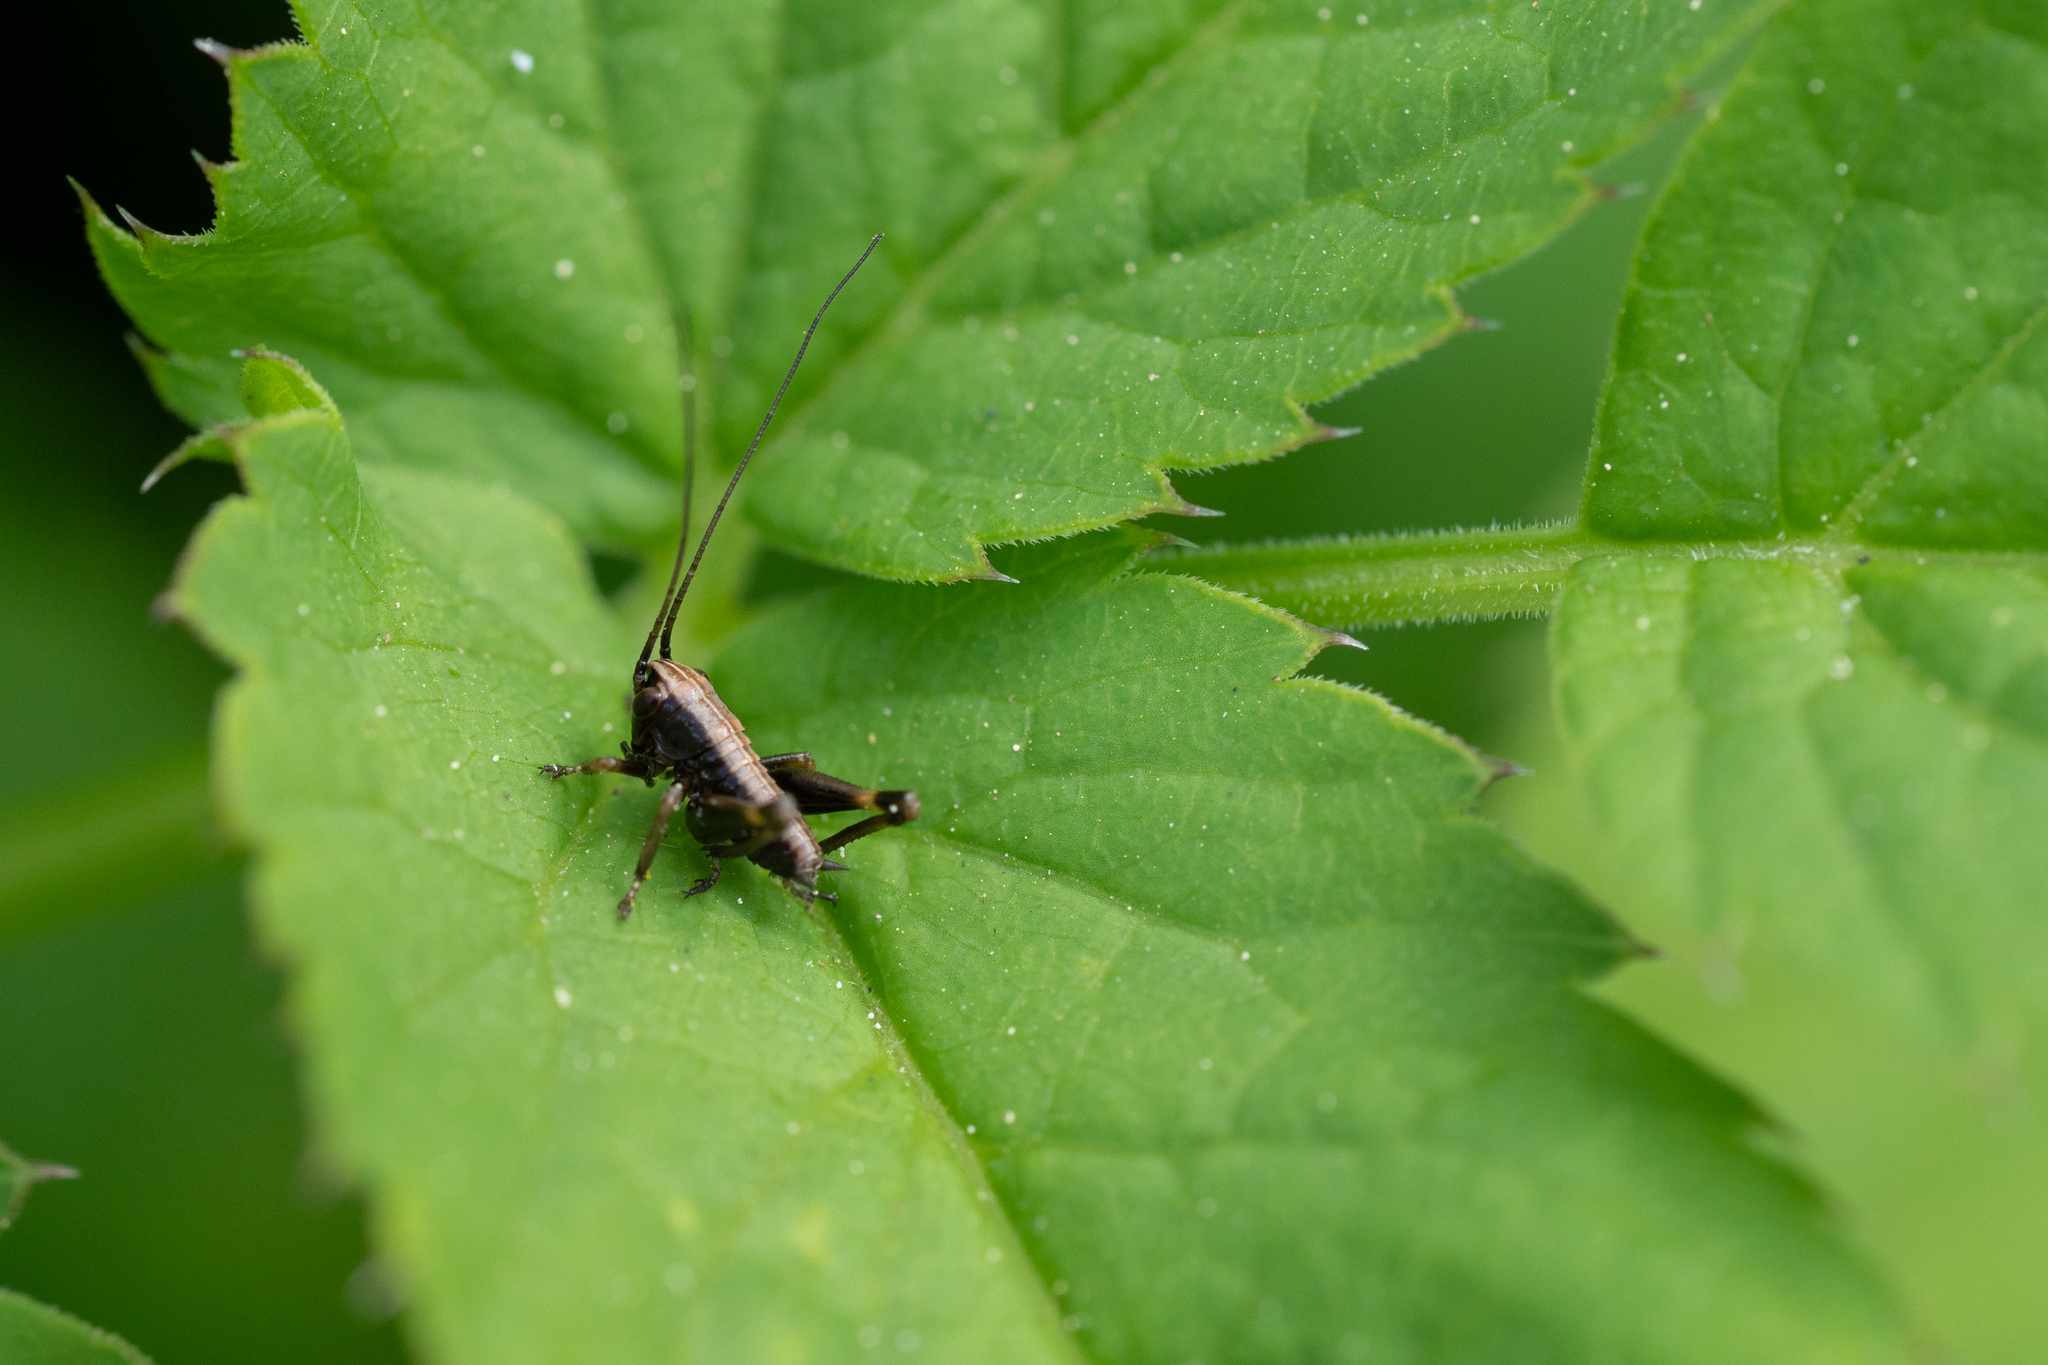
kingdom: Animalia
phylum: Arthropoda
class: Insecta
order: Orthoptera
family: Tettigoniidae
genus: Pholidoptera
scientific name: Pholidoptera griseoaptera
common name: Dark bush-cricket
